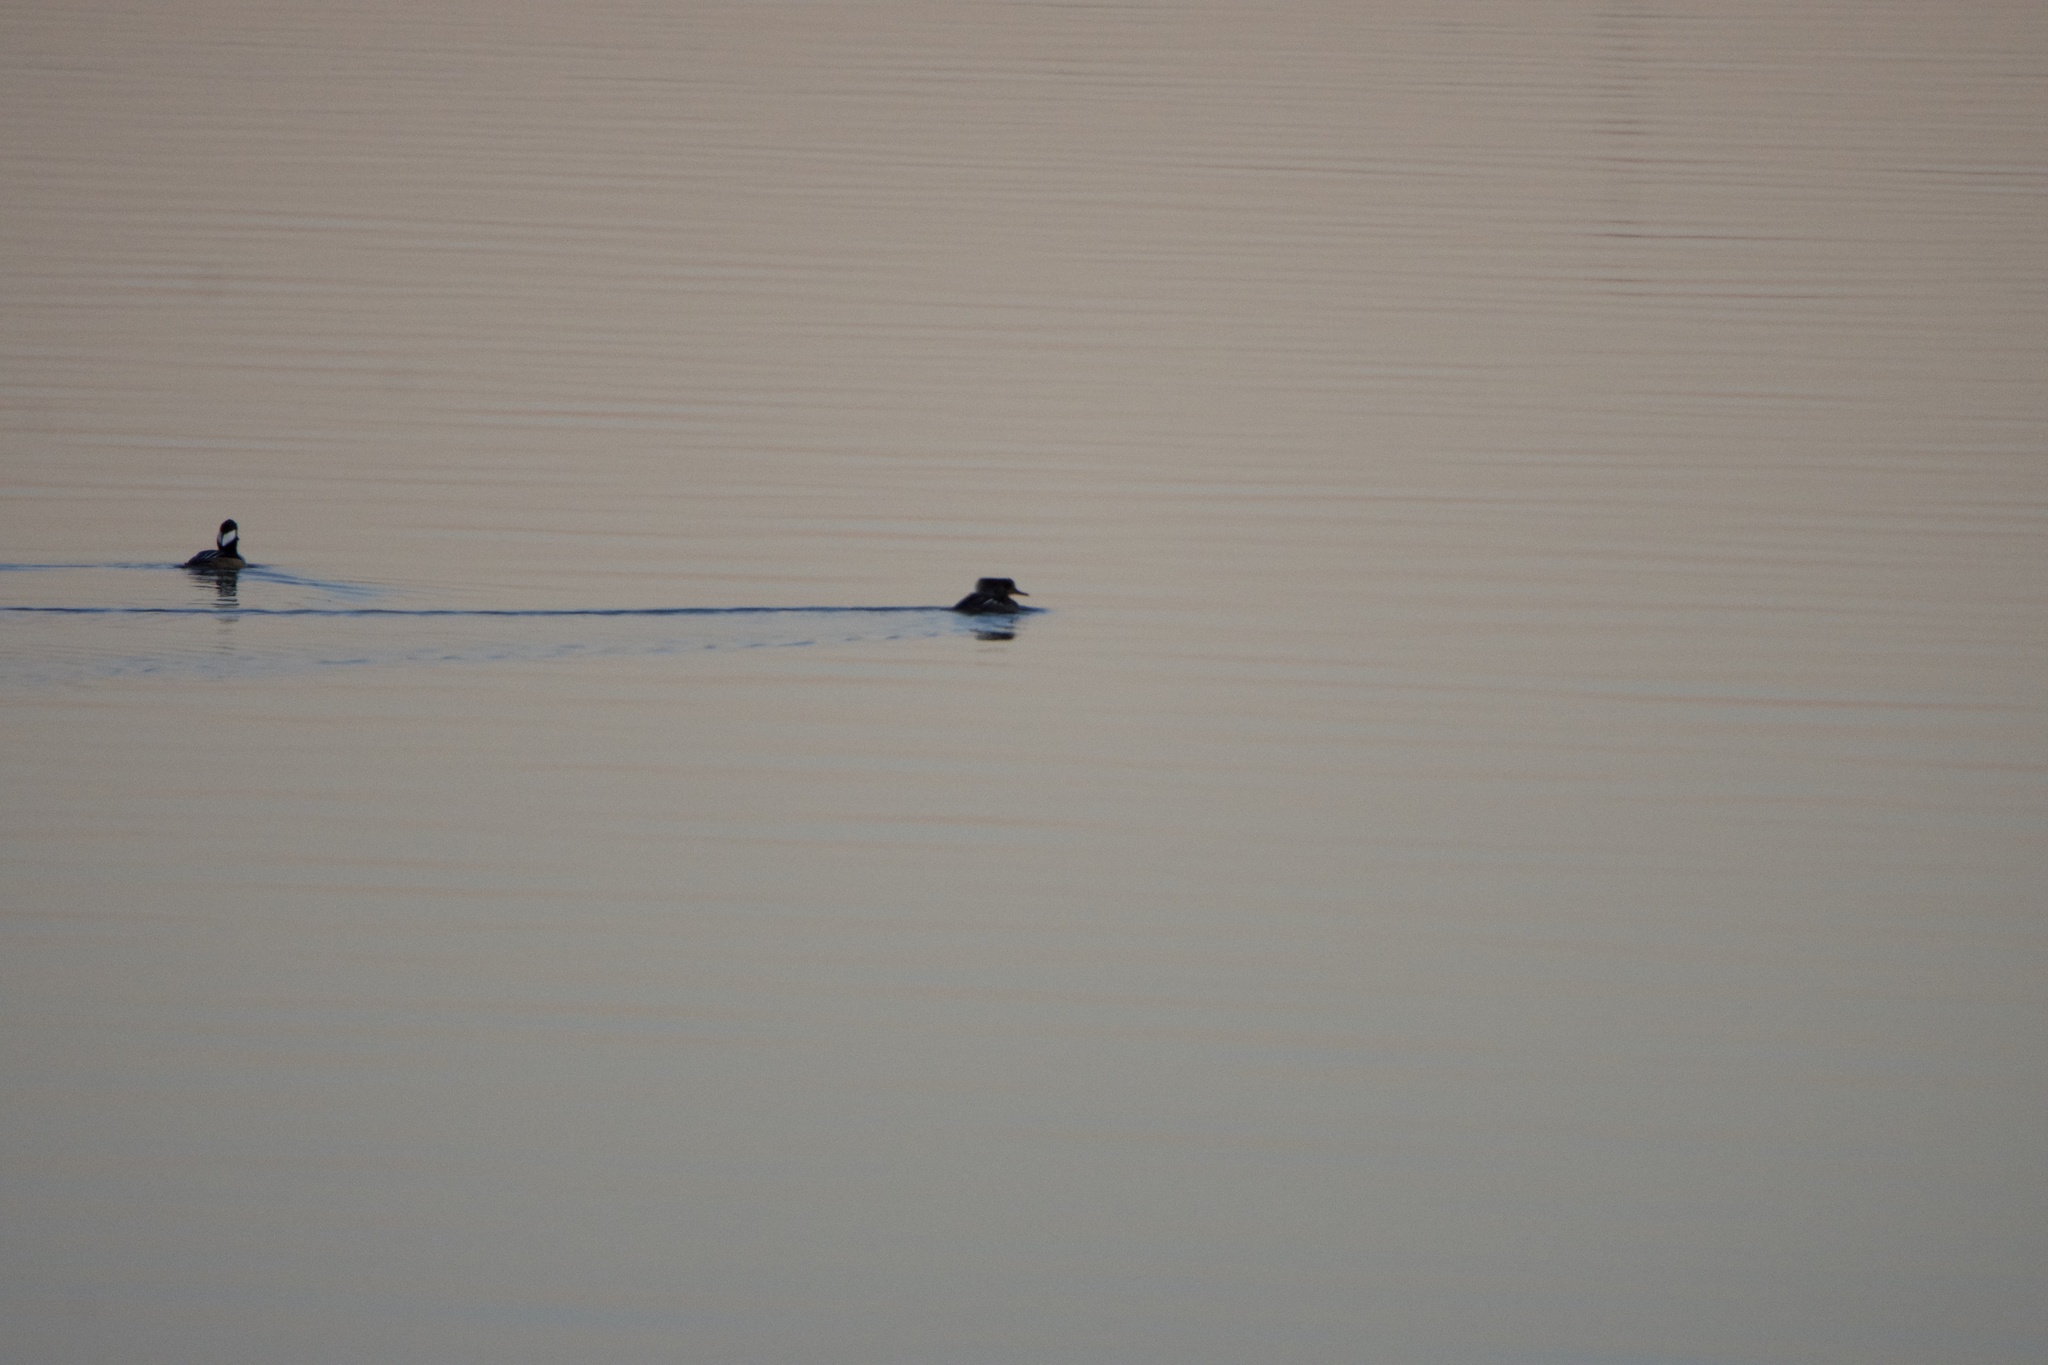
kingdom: Animalia
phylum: Chordata
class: Aves
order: Anseriformes
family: Anatidae
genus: Lophodytes
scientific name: Lophodytes cucullatus
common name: Hooded merganser
